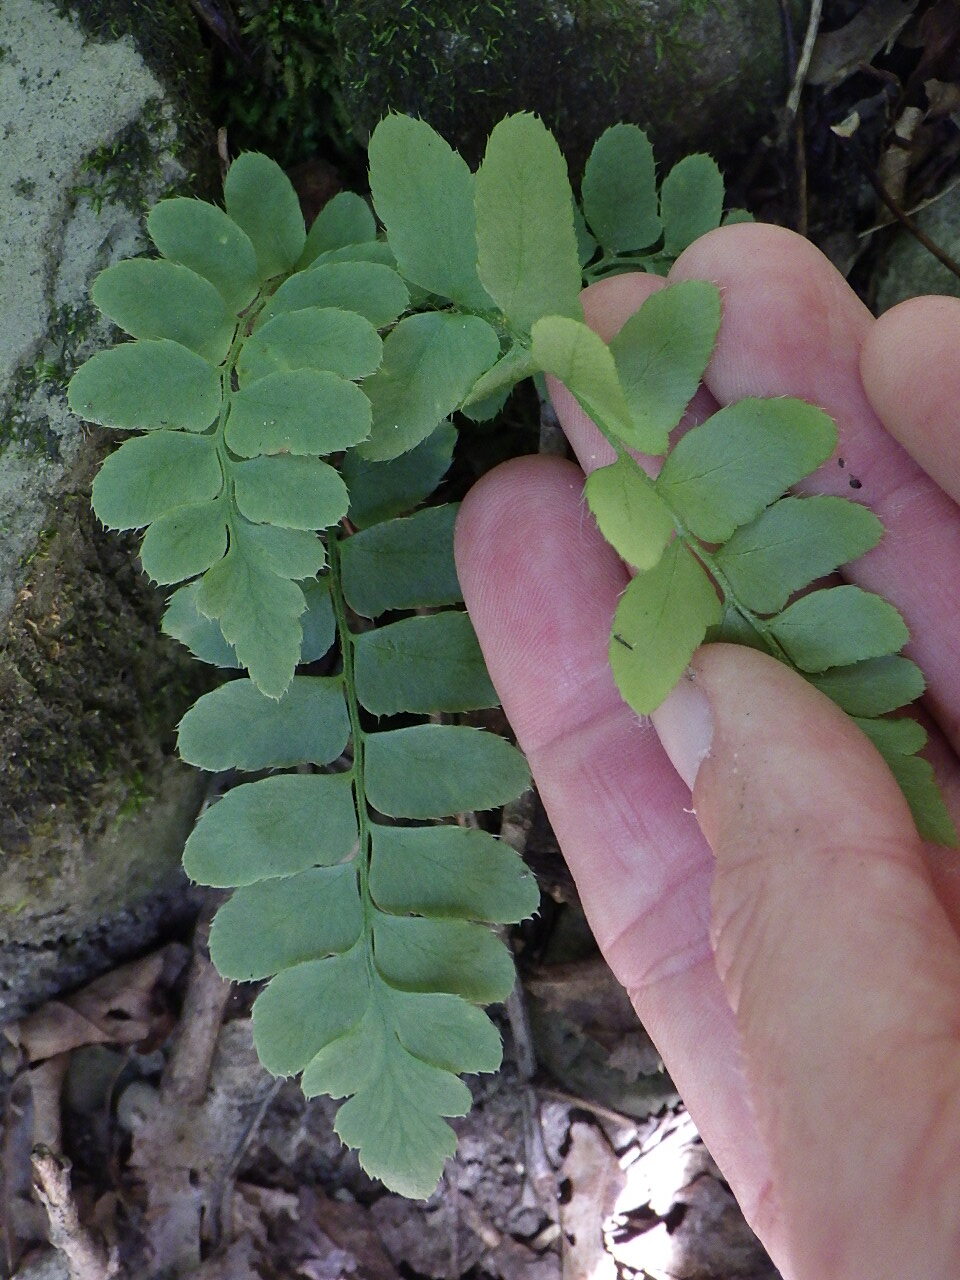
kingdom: Plantae
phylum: Tracheophyta
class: Polypodiopsida
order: Polypodiales
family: Dryopteridaceae
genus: Polystichum
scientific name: Polystichum acrostichoides
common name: Christmas fern
